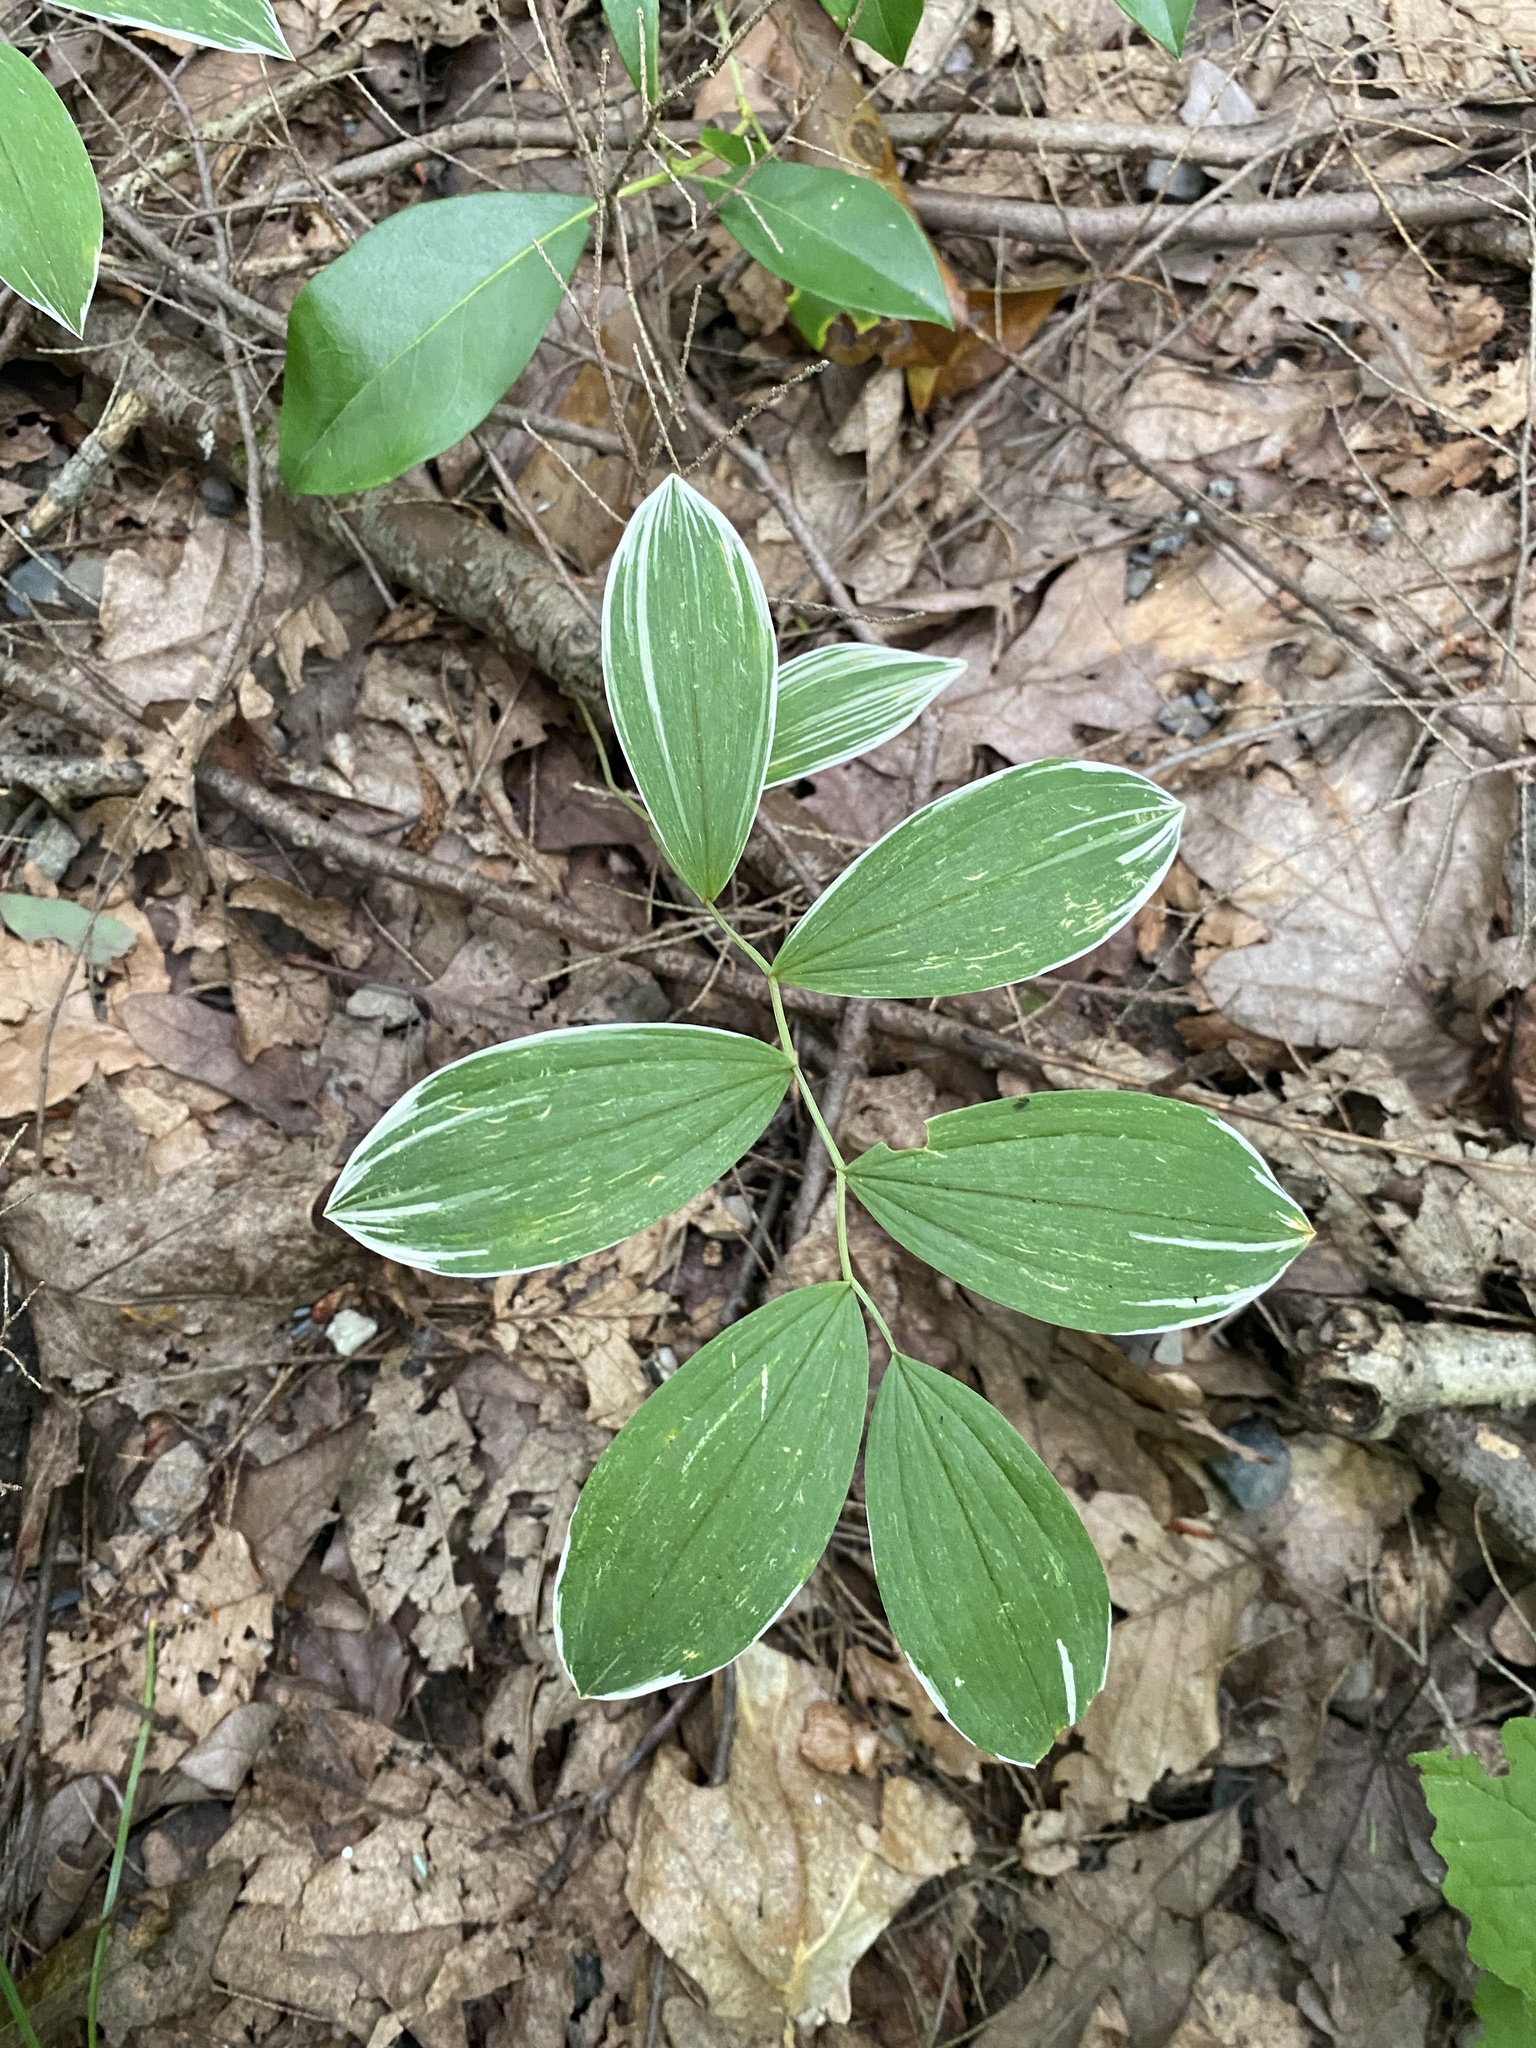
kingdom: Plantae
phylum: Tracheophyta
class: Liliopsida
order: Liliales
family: Colchicaceae
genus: Uvularia
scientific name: Uvularia sessilifolia
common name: Straw-lily
